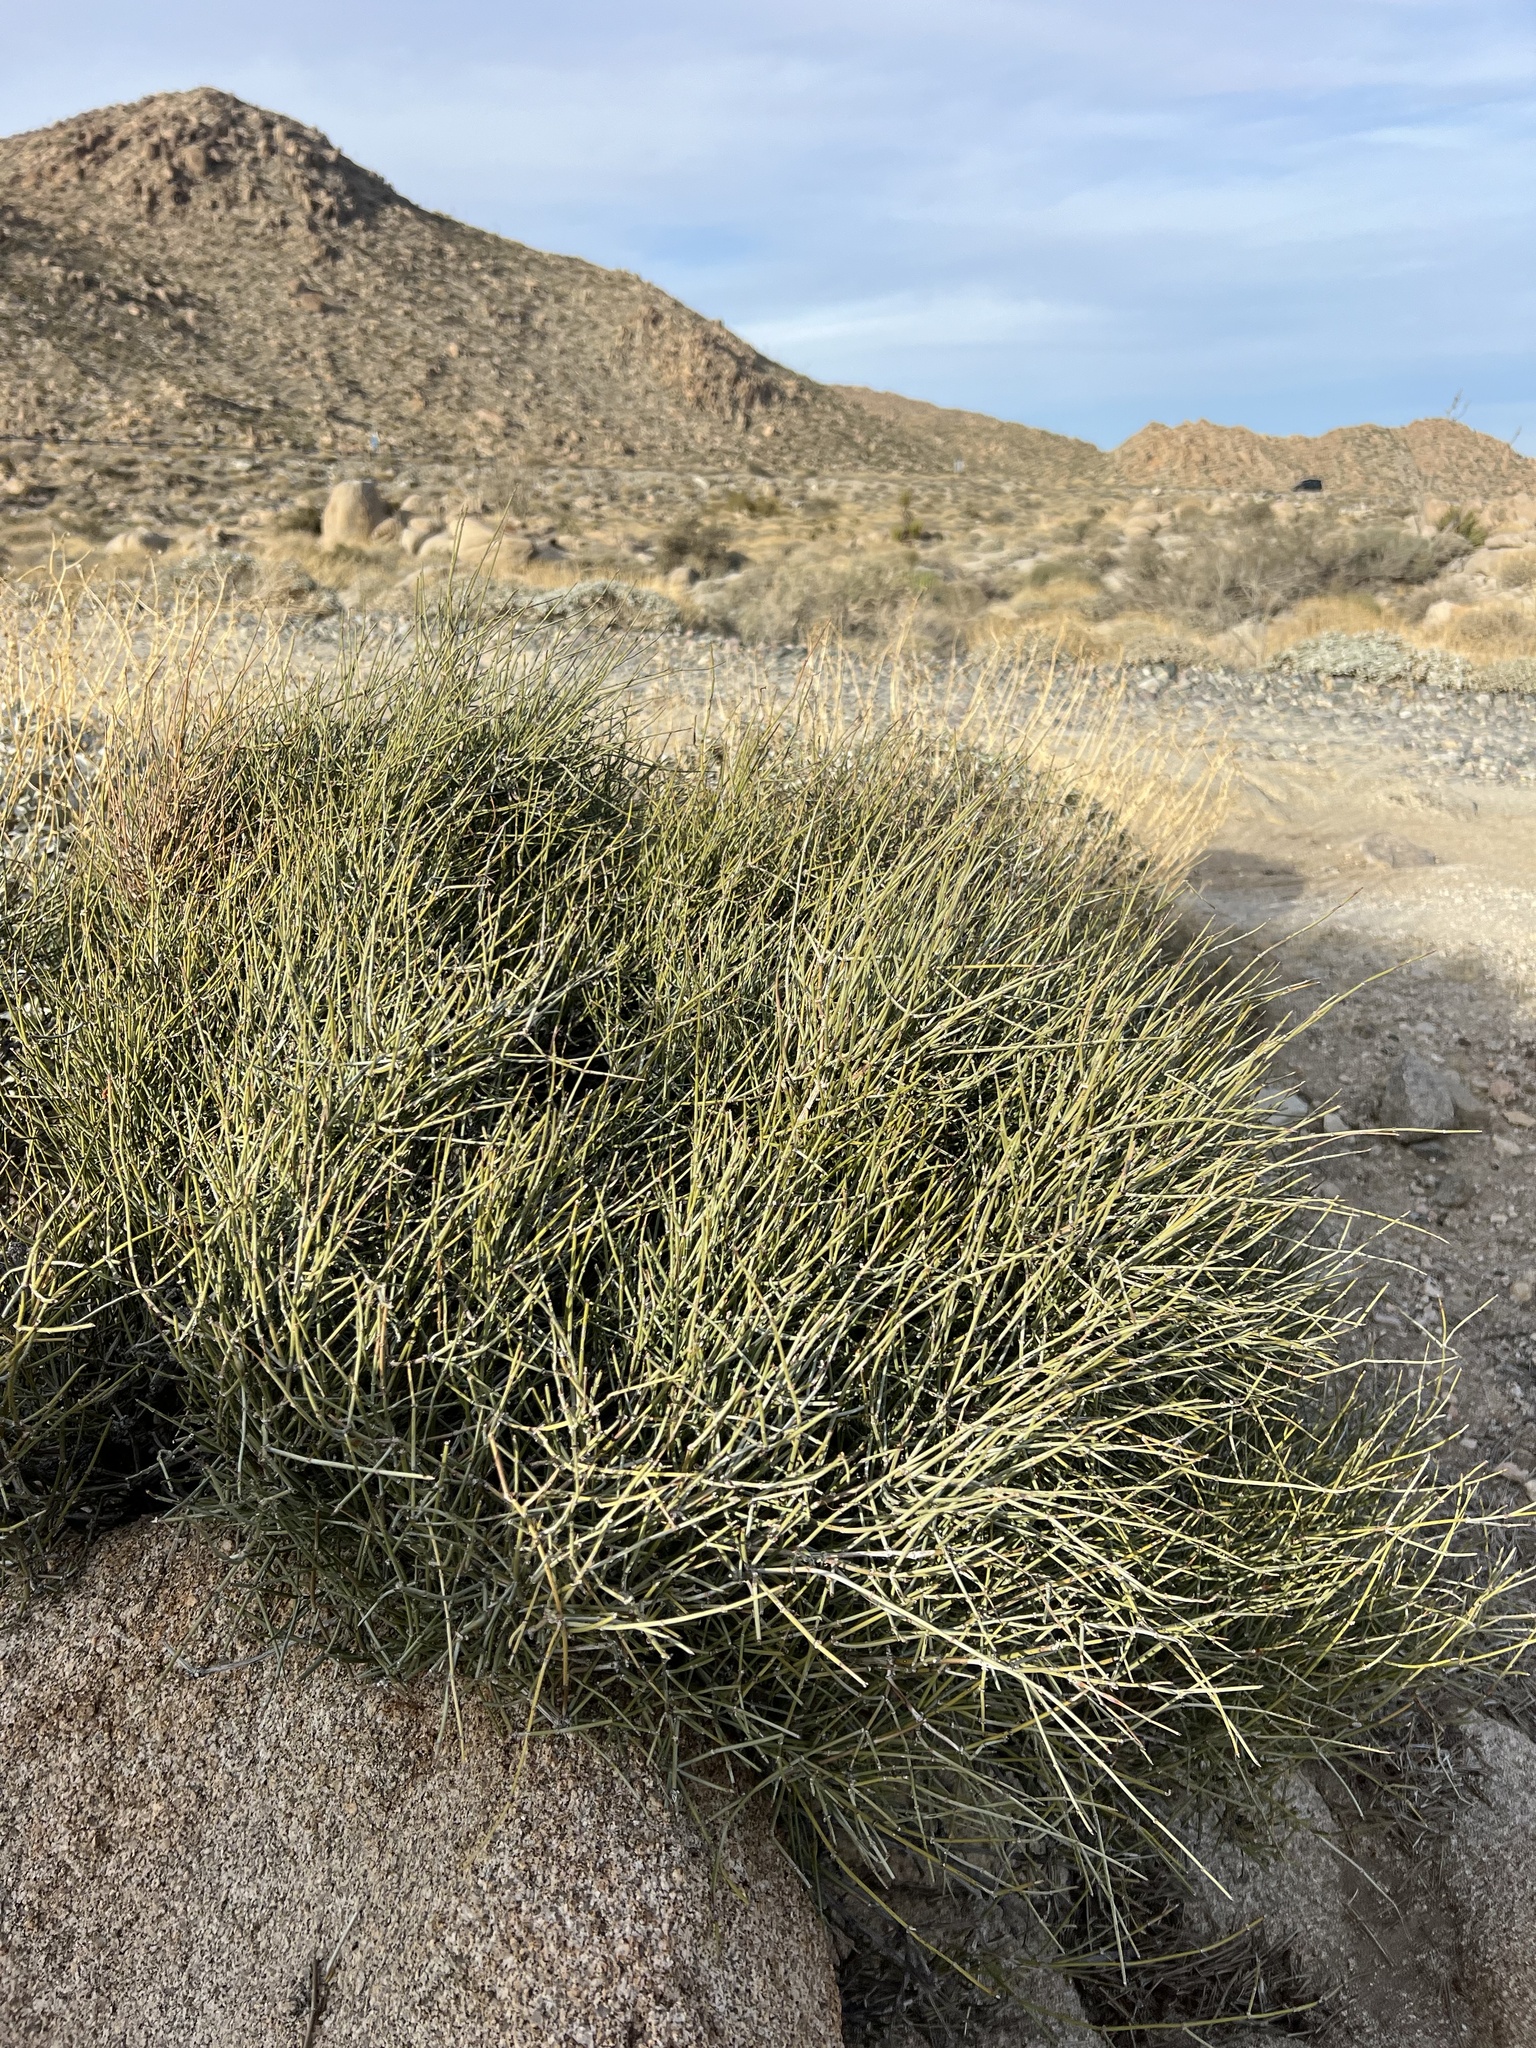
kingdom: Plantae
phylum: Tracheophyta
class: Gnetopsida
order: Ephedrales
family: Ephedraceae
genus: Ephedra
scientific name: Ephedra aspera
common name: Boundary ephedra
